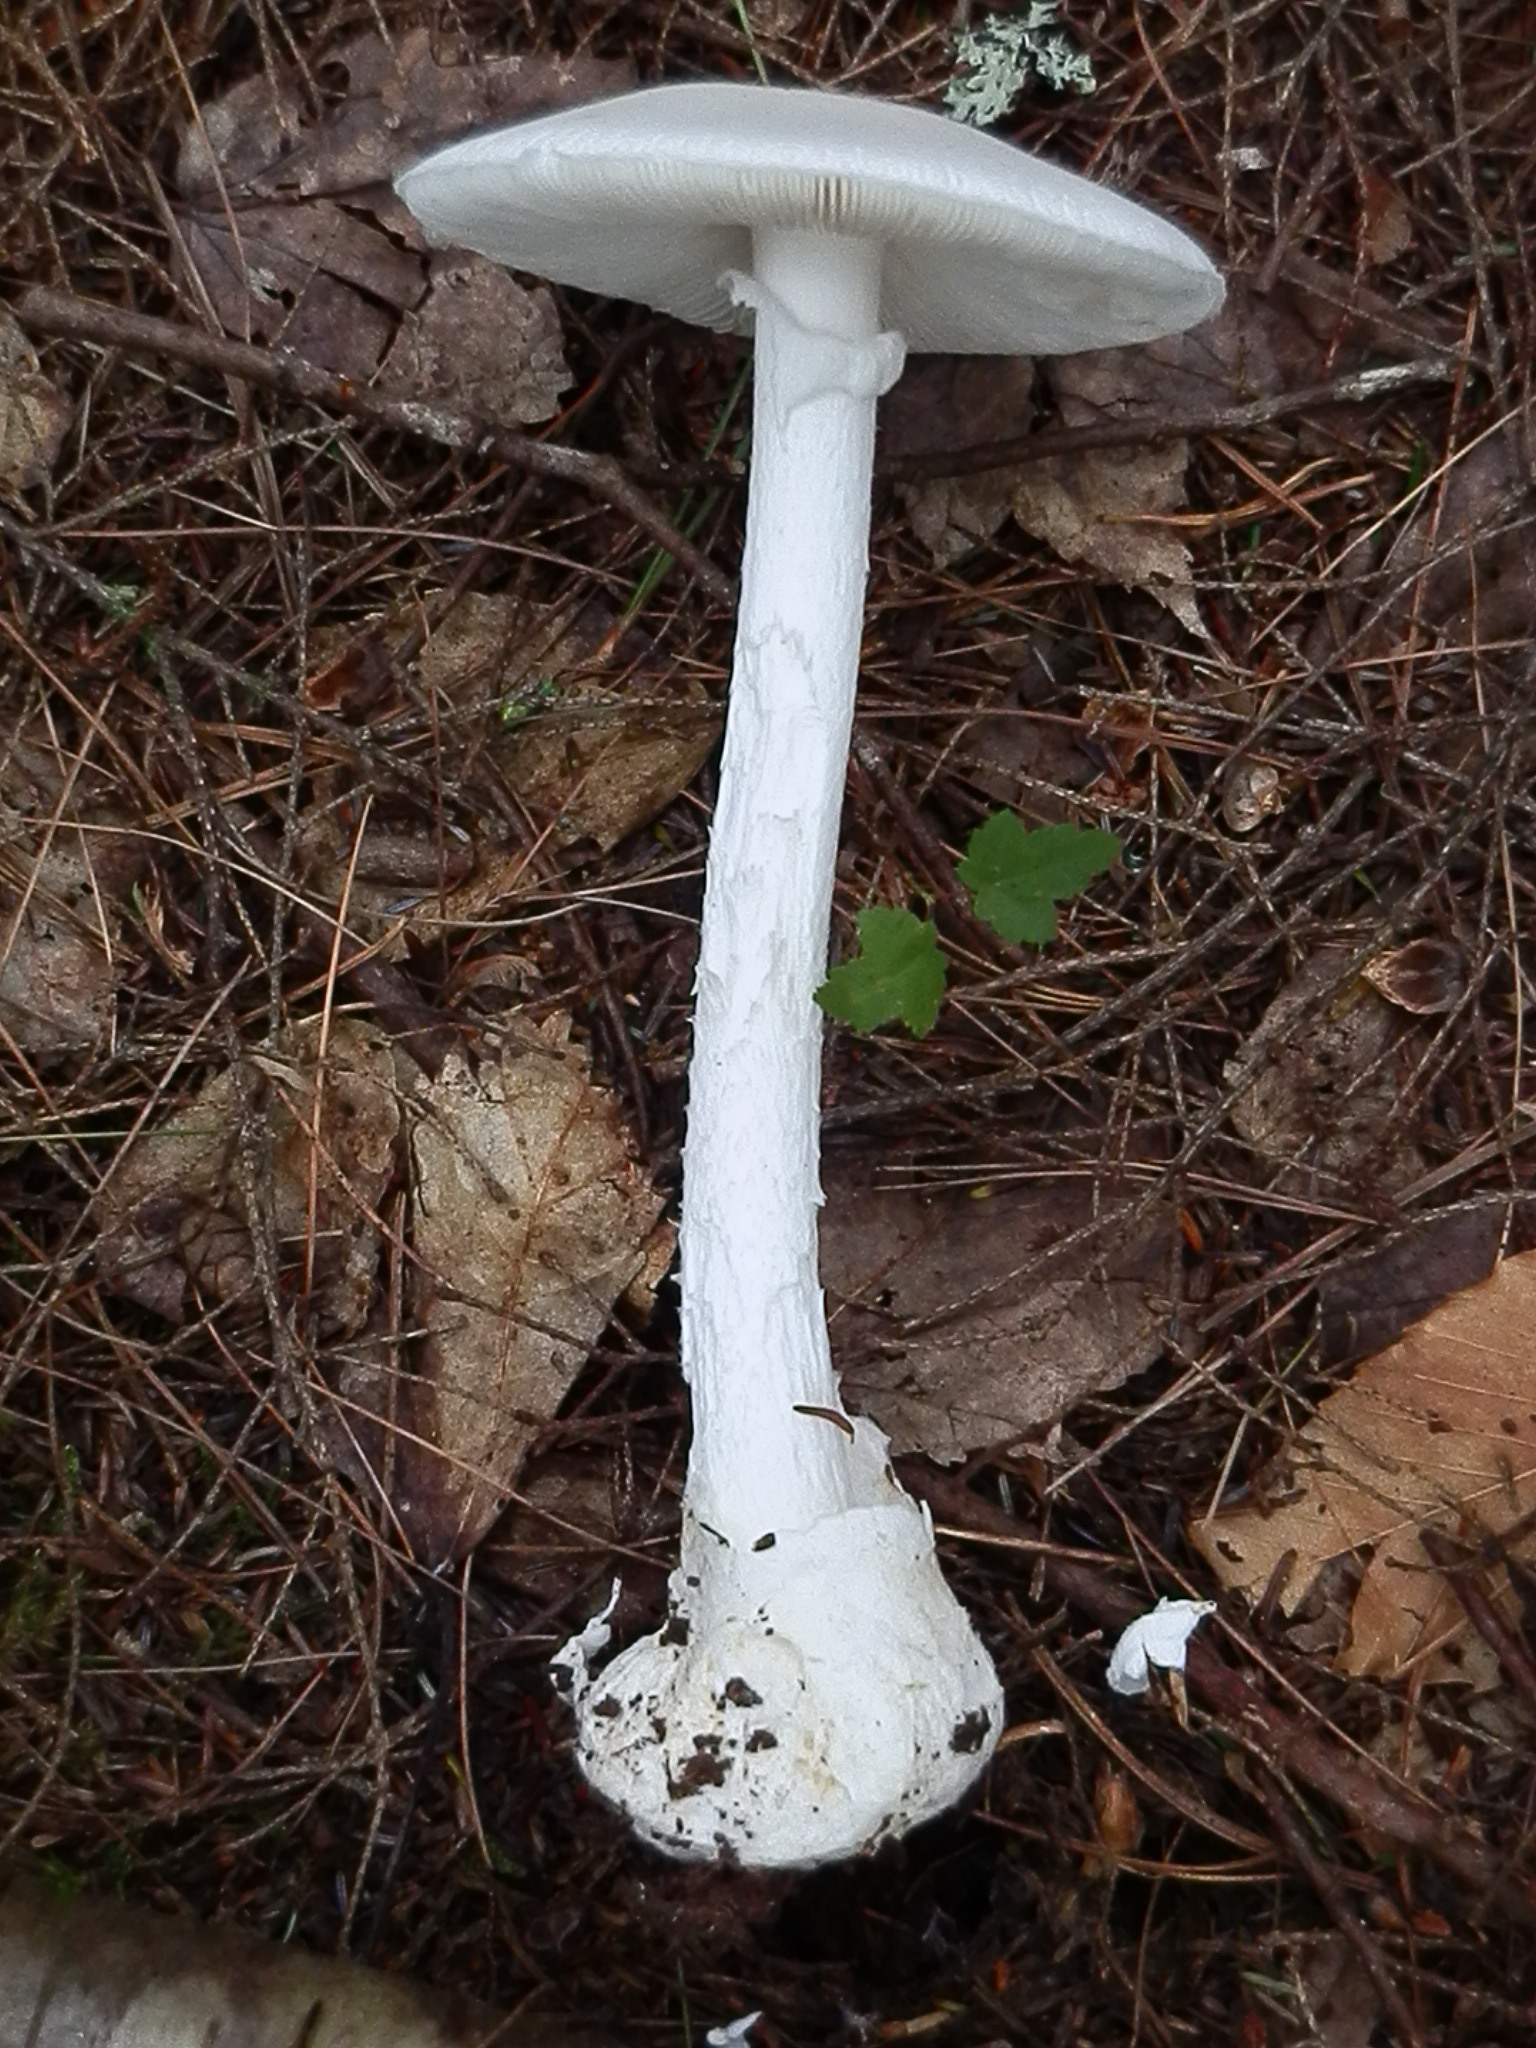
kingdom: Fungi
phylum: Basidiomycota
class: Agaricomycetes
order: Agaricales
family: Amanitaceae
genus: Amanita
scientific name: Amanita bisporigera
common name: Eastern north american destroying angel
